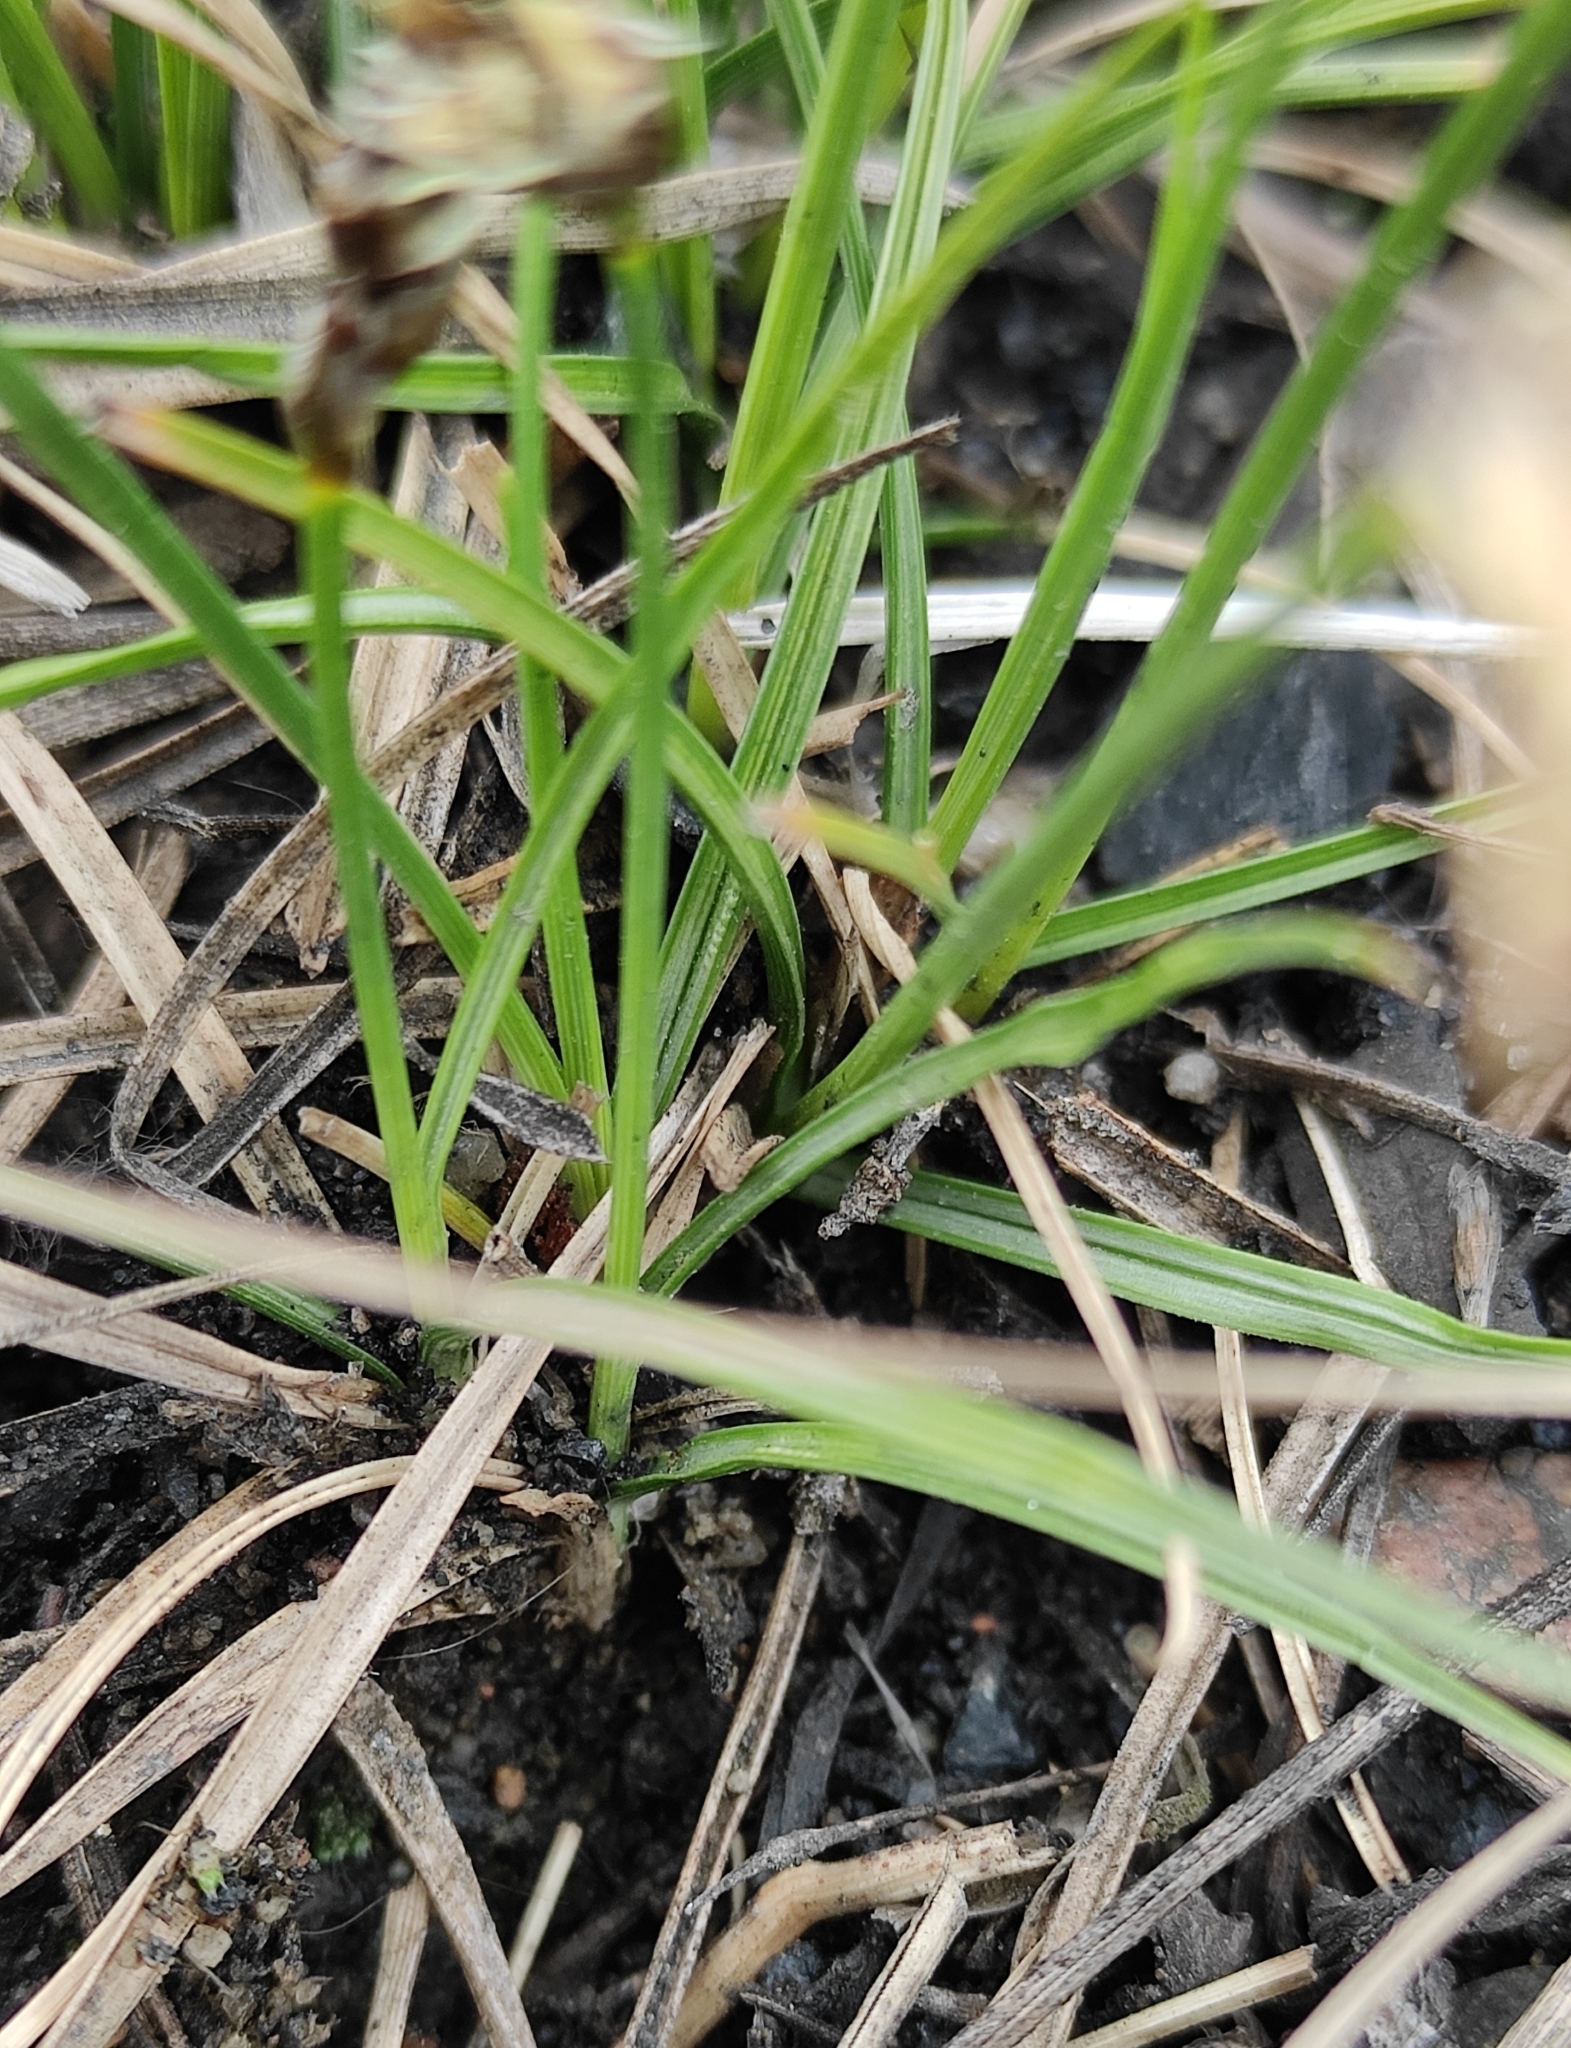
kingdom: Plantae
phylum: Tracheophyta
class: Liliopsida
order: Poales
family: Cyperaceae
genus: Carex
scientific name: Carex duriuscula
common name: Involute-leaved sedge
